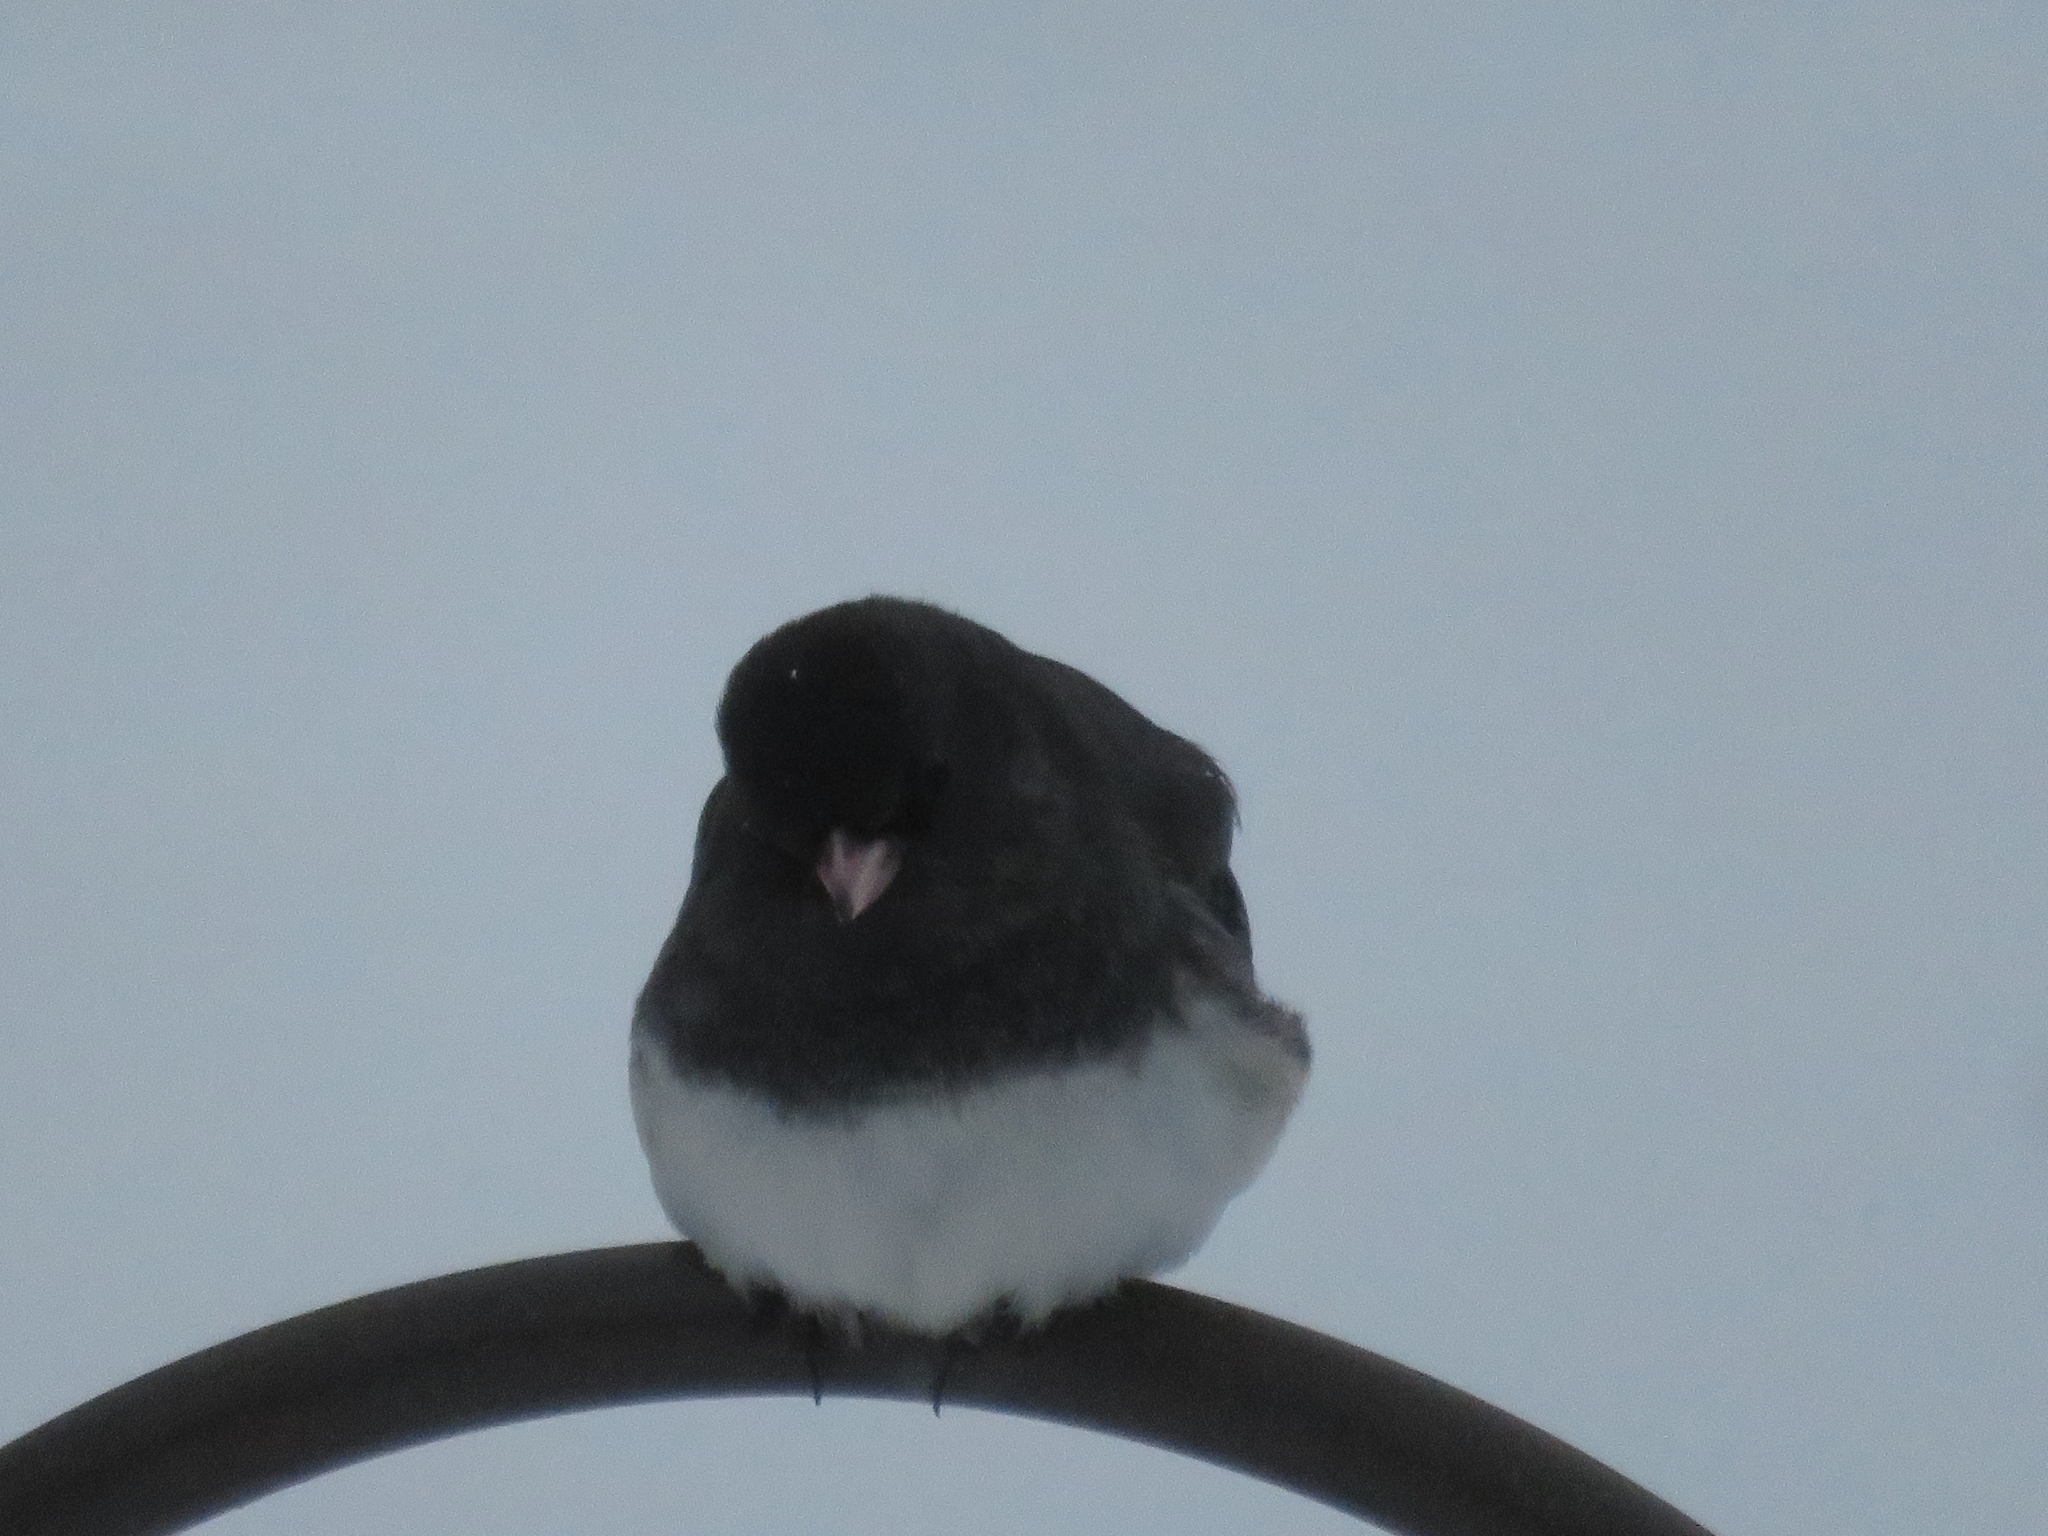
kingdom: Animalia
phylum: Chordata
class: Aves
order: Passeriformes
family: Passerellidae
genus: Junco
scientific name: Junco hyemalis
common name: Dark-eyed junco
